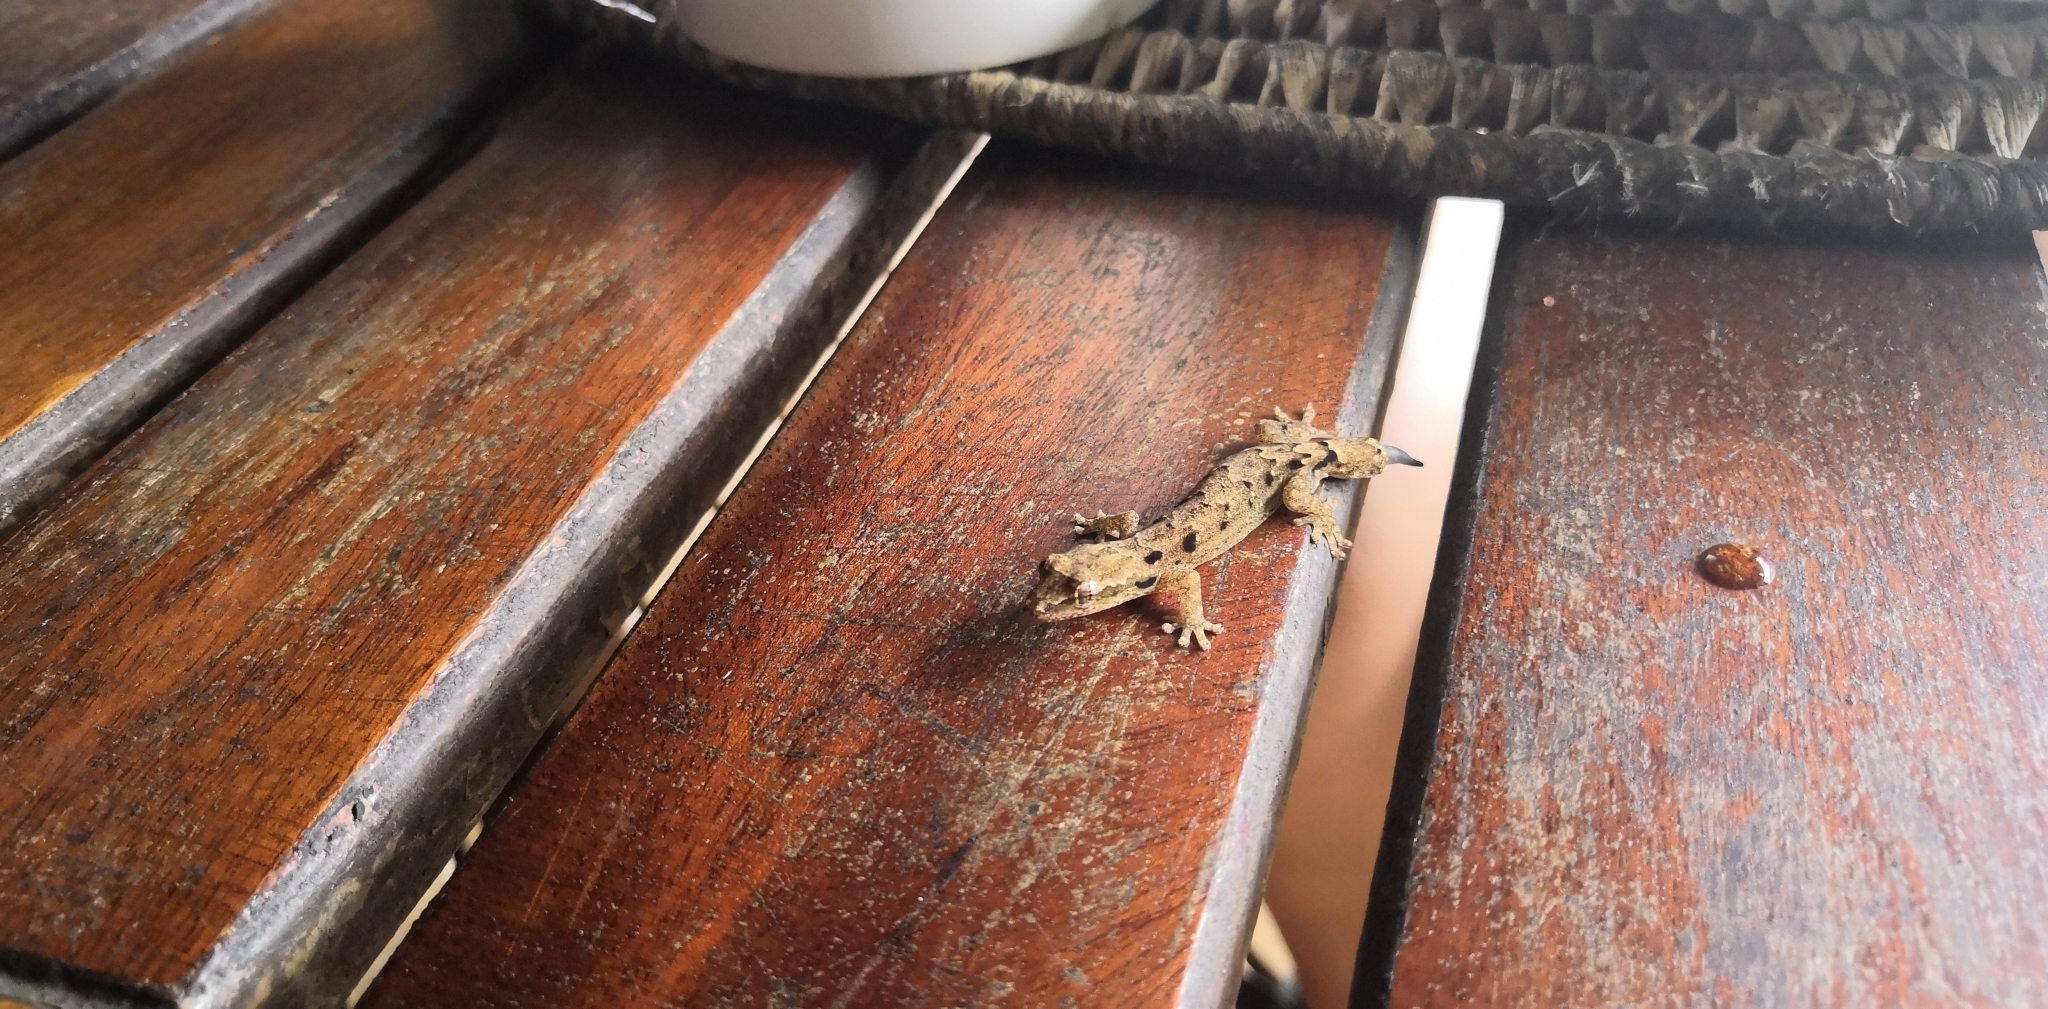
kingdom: Animalia
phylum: Chordata
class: Squamata
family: Gekkonidae
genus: Lepidodactylus
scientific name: Lepidodactylus lugubris
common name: Mourning gecko
